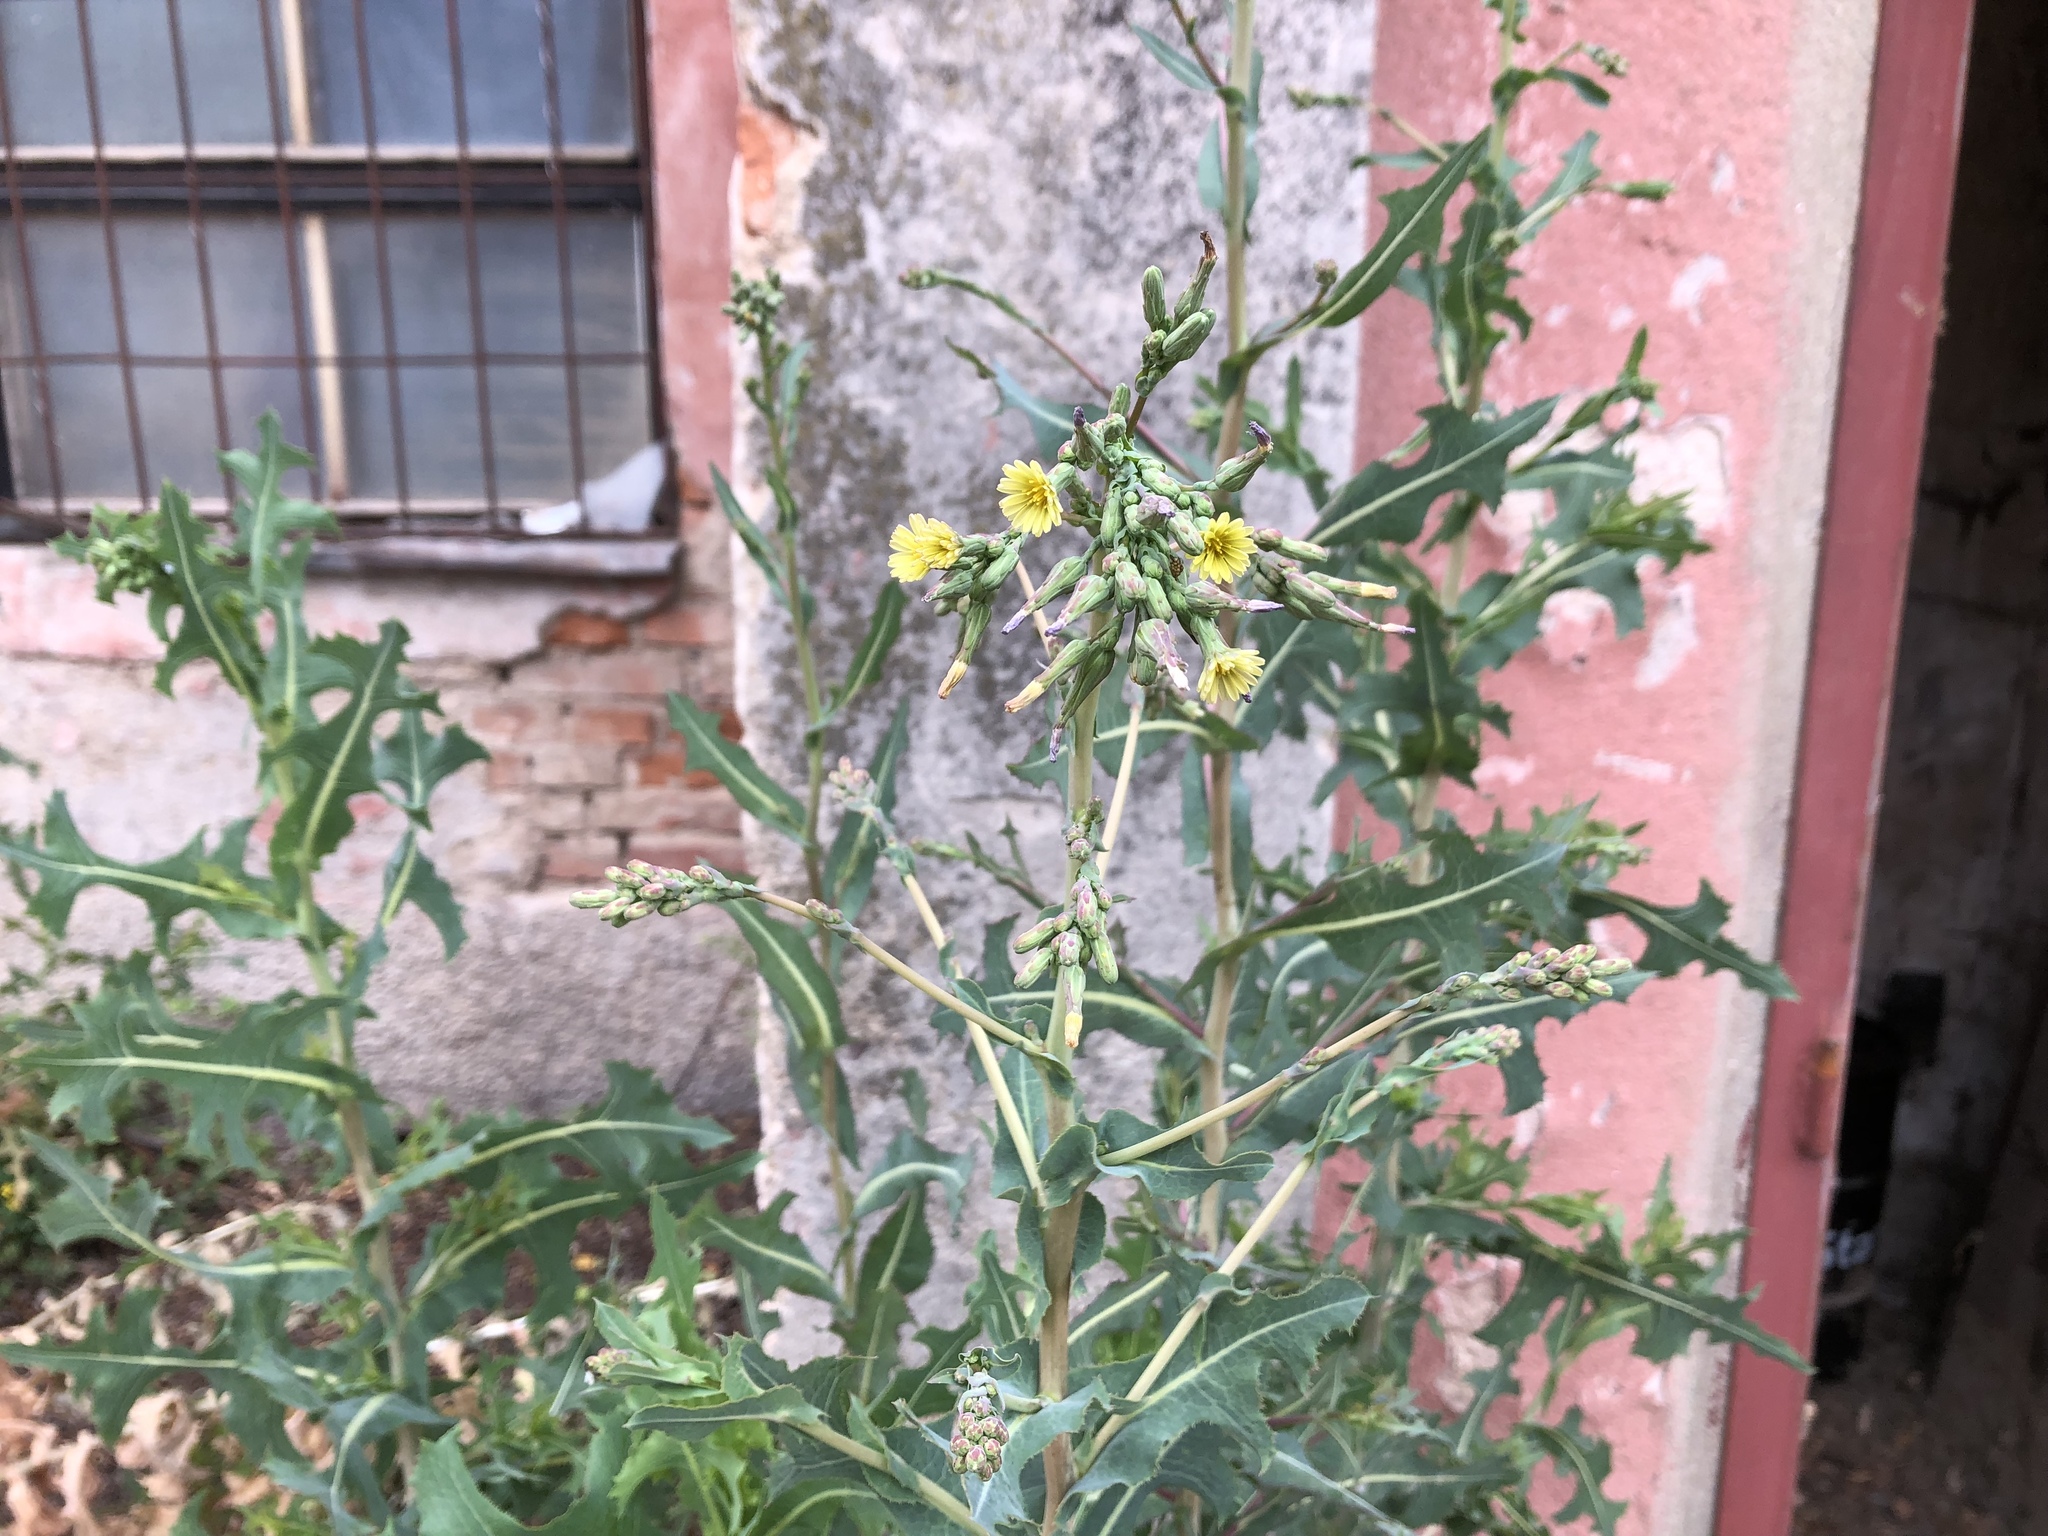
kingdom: Plantae
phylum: Tracheophyta
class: Magnoliopsida
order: Asterales
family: Asteraceae
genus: Lactuca
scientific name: Lactuca serriola
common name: Prickly lettuce
